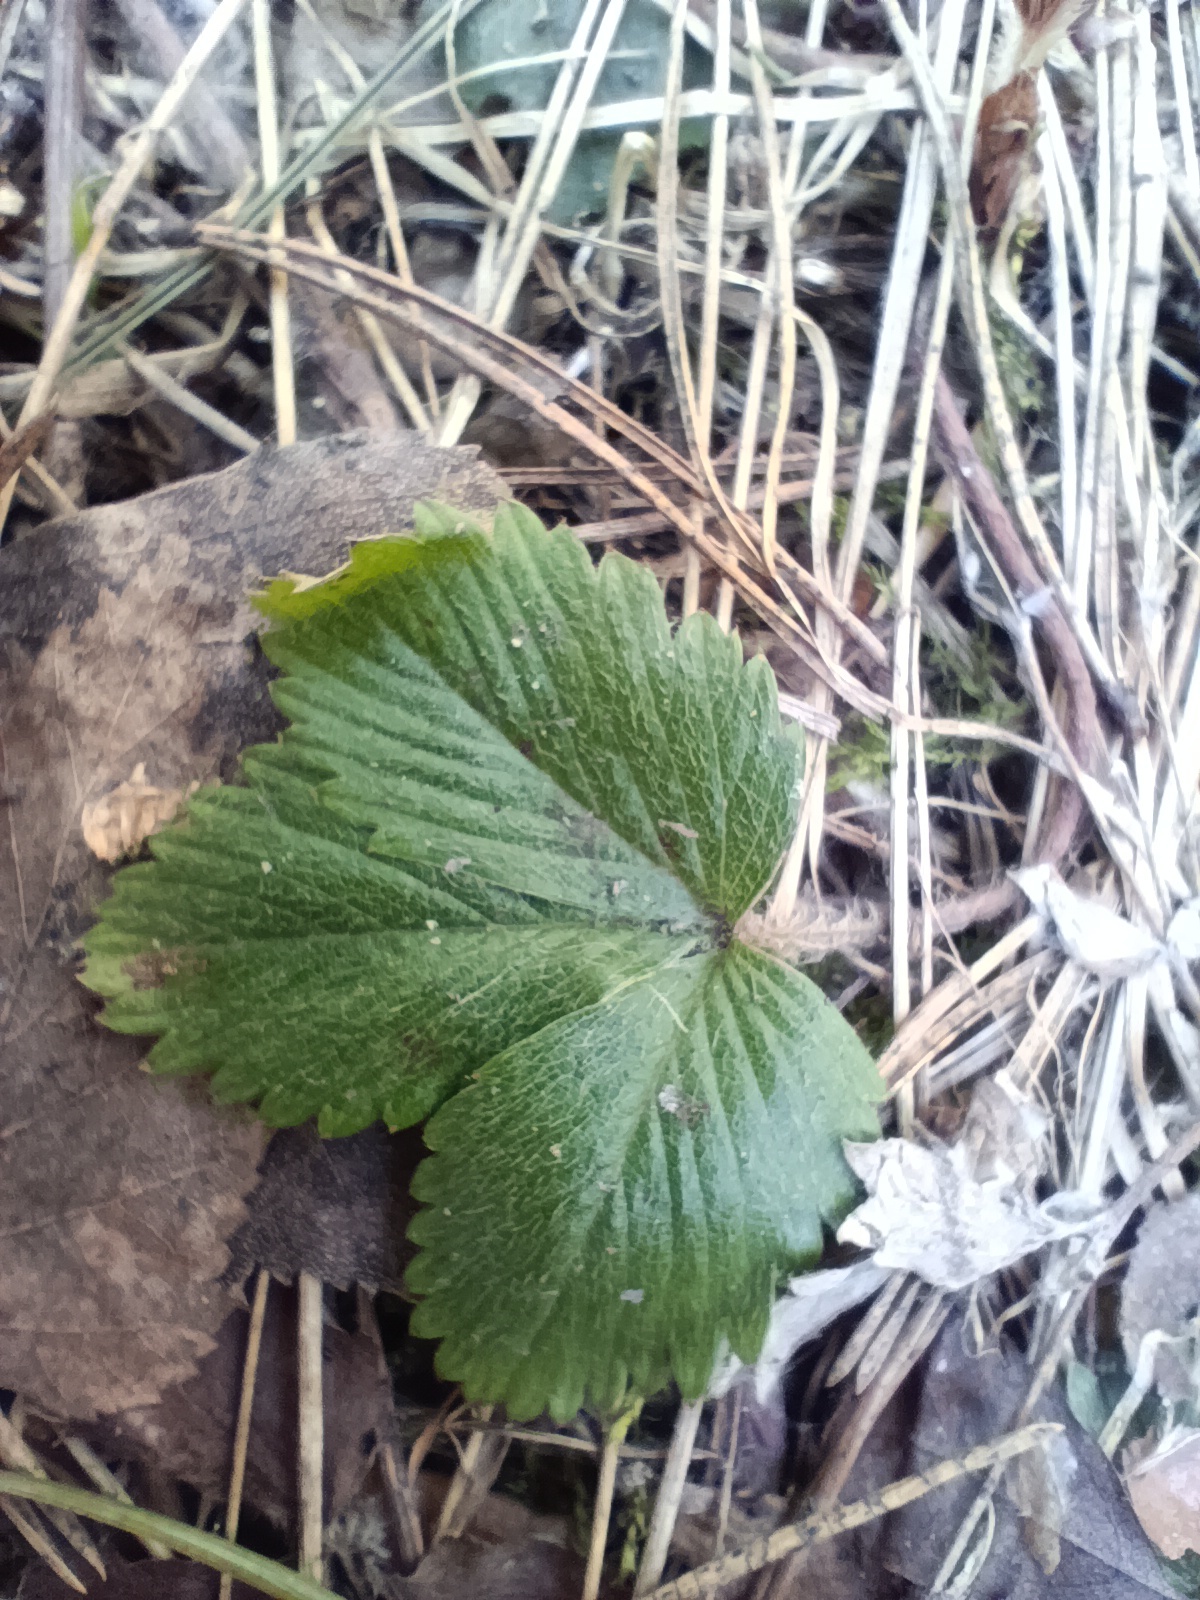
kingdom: Plantae
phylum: Tracheophyta
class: Magnoliopsida
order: Rosales
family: Rosaceae
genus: Fragaria
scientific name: Fragaria vesca
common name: Wild strawberry
